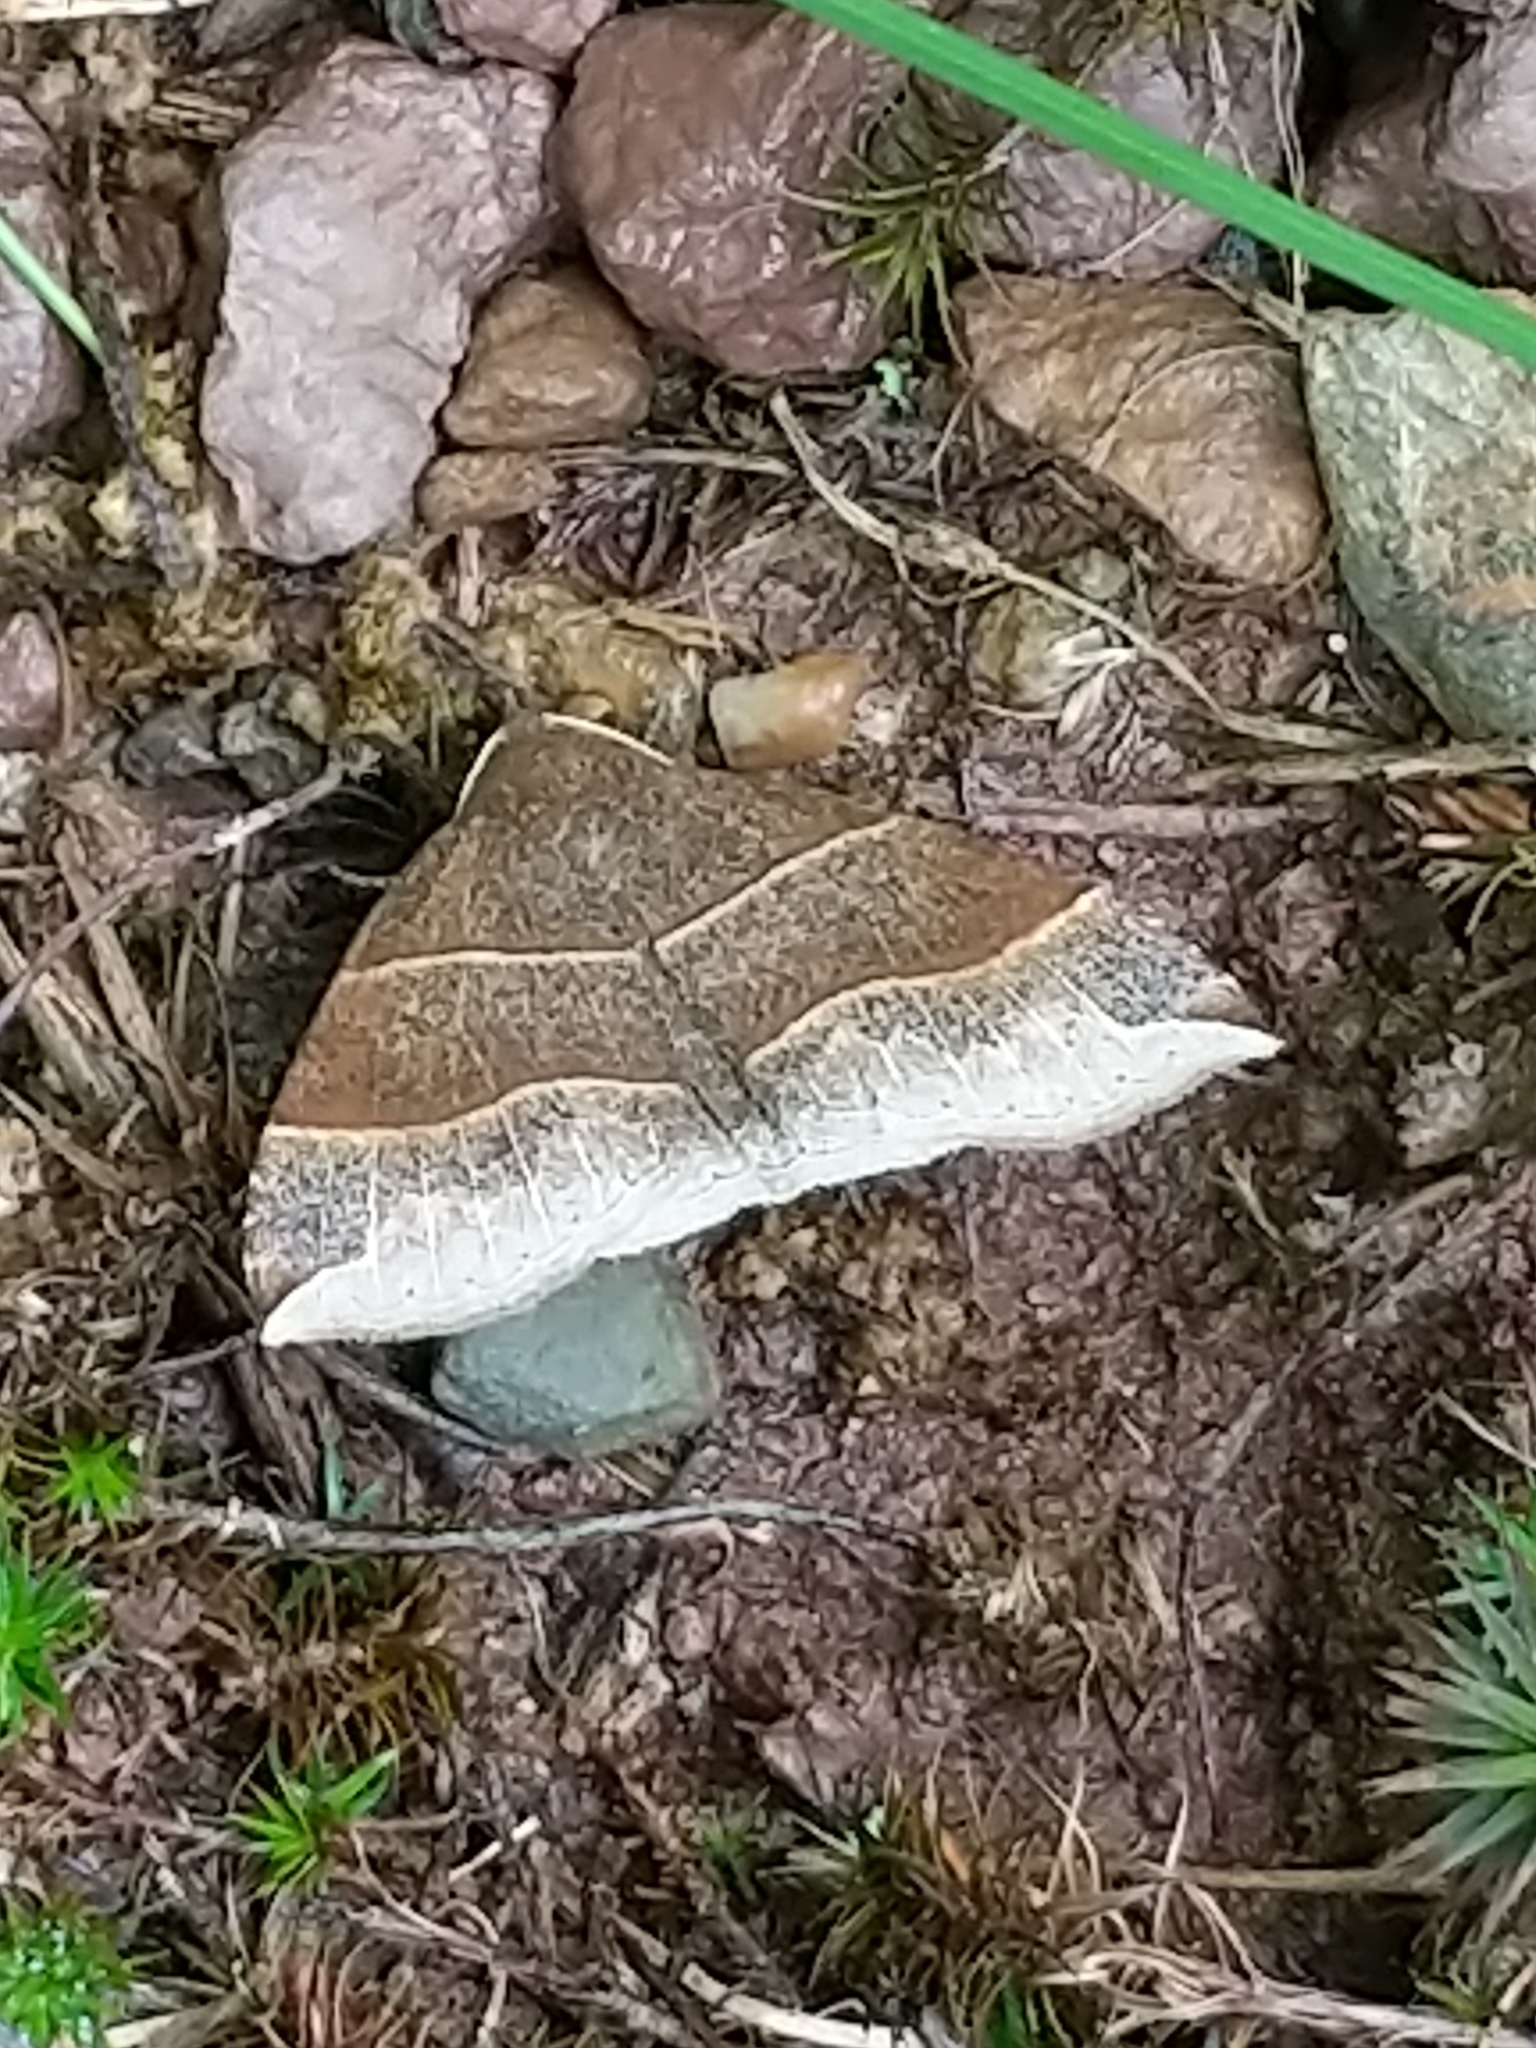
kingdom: Animalia
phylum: Arthropoda
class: Insecta
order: Lepidoptera
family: Erebidae
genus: Parallelia
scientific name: Parallelia bistriaris
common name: Maple looper moth
